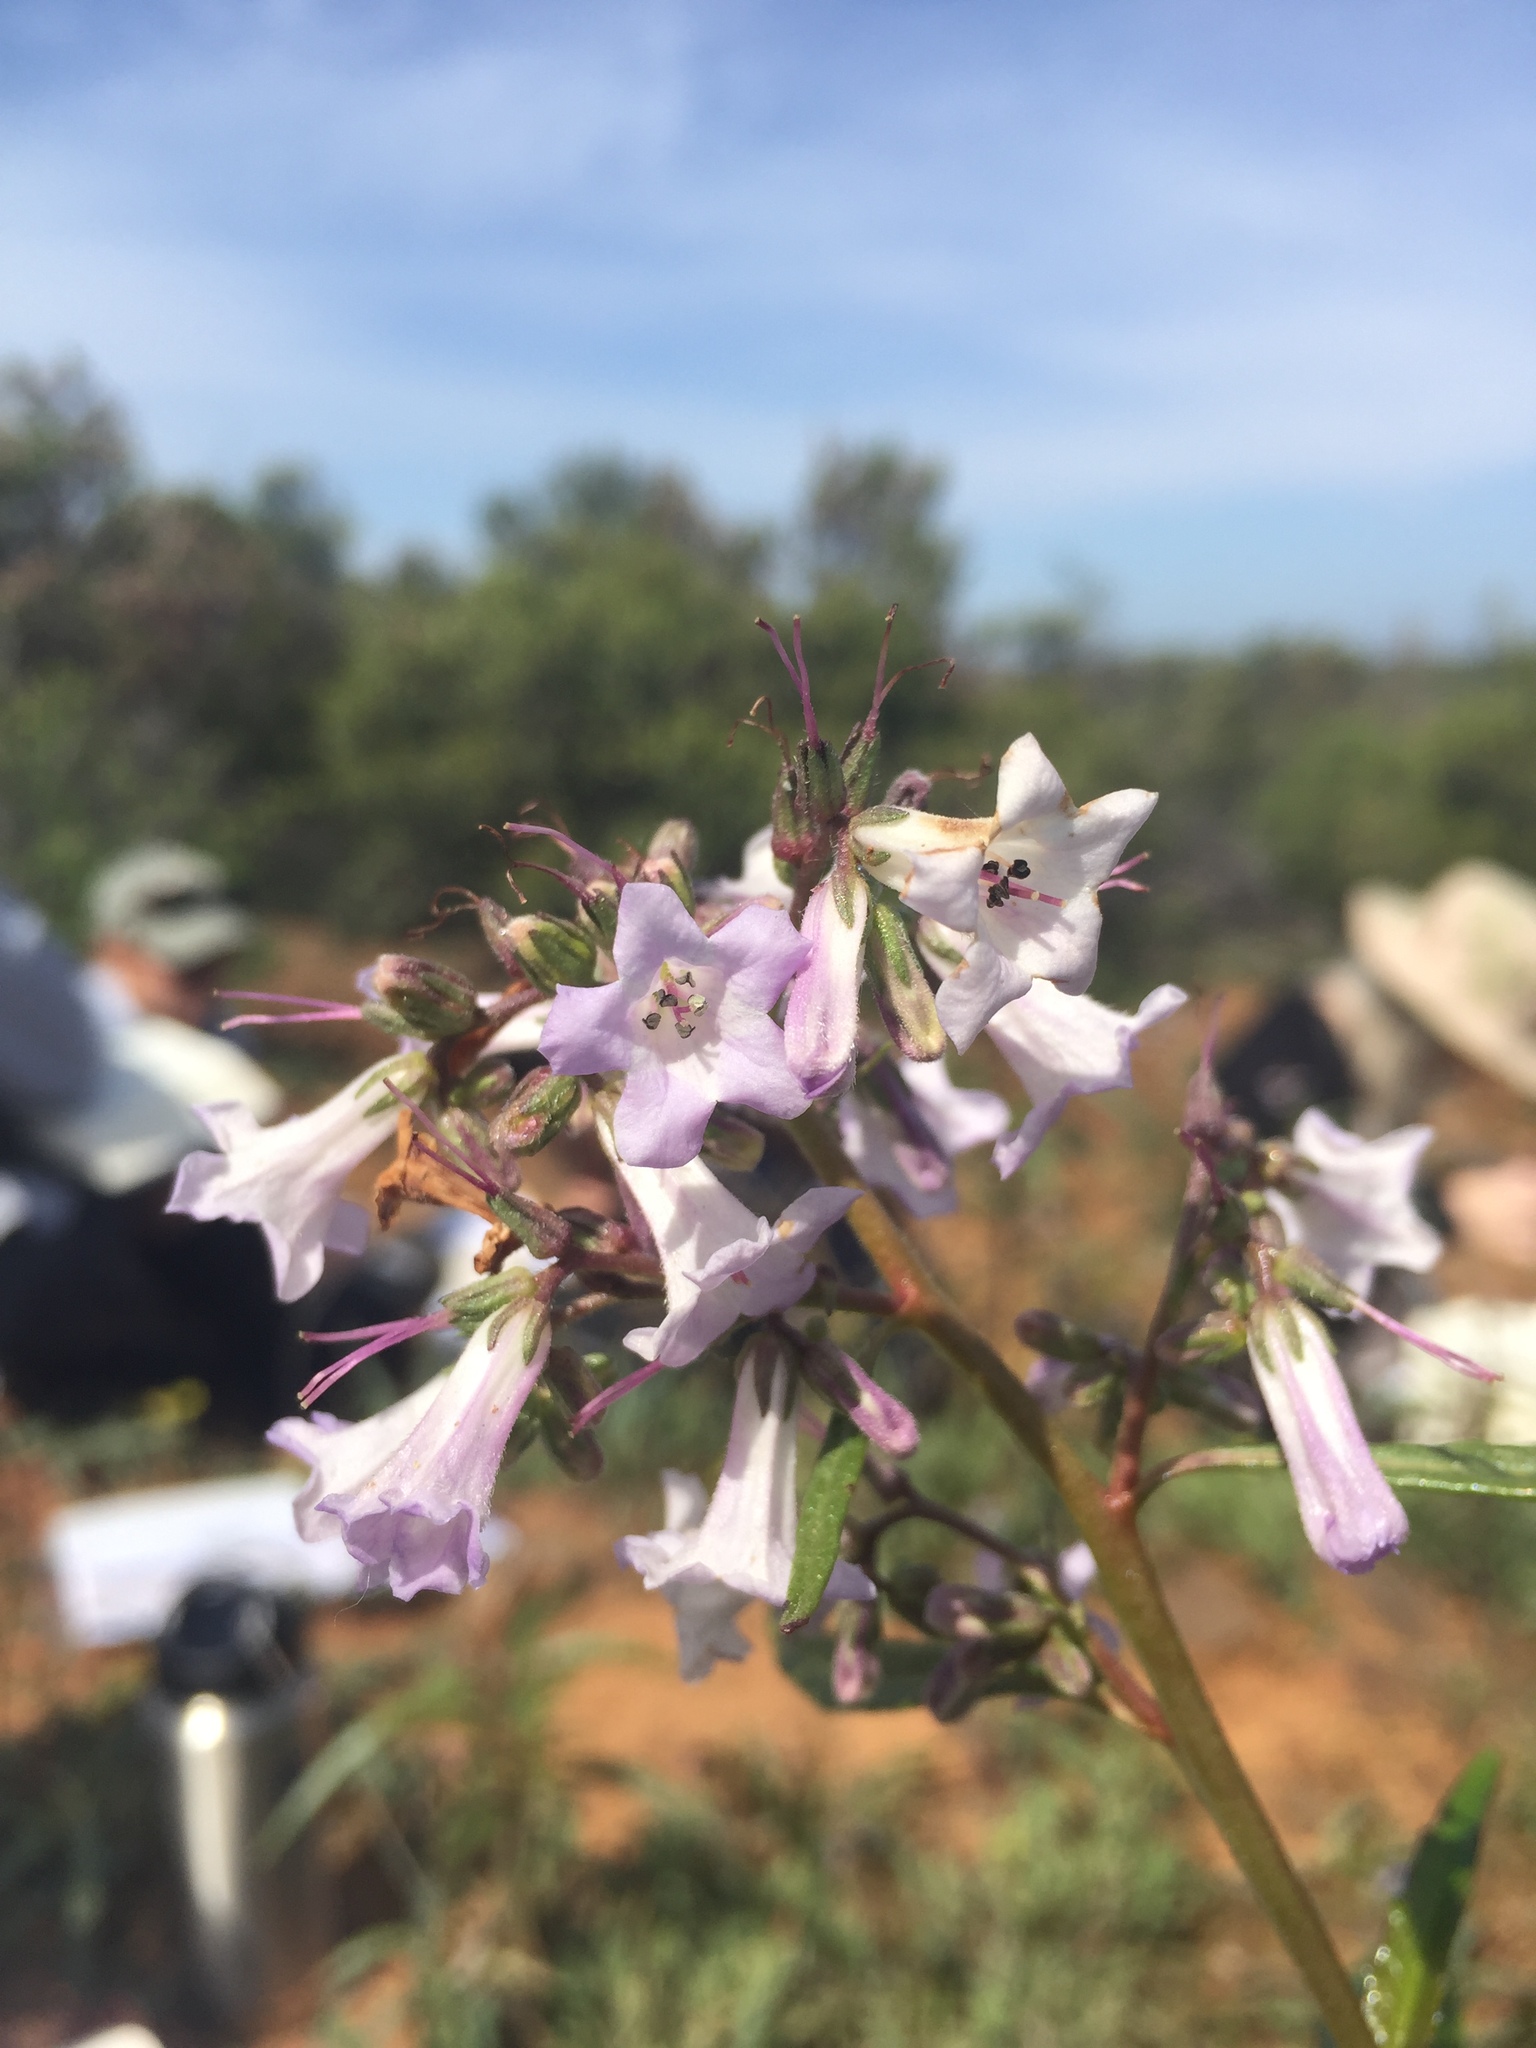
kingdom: Plantae
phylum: Tracheophyta
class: Magnoliopsida
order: Boraginales
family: Namaceae
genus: Eriodictyon
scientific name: Eriodictyon californicum
